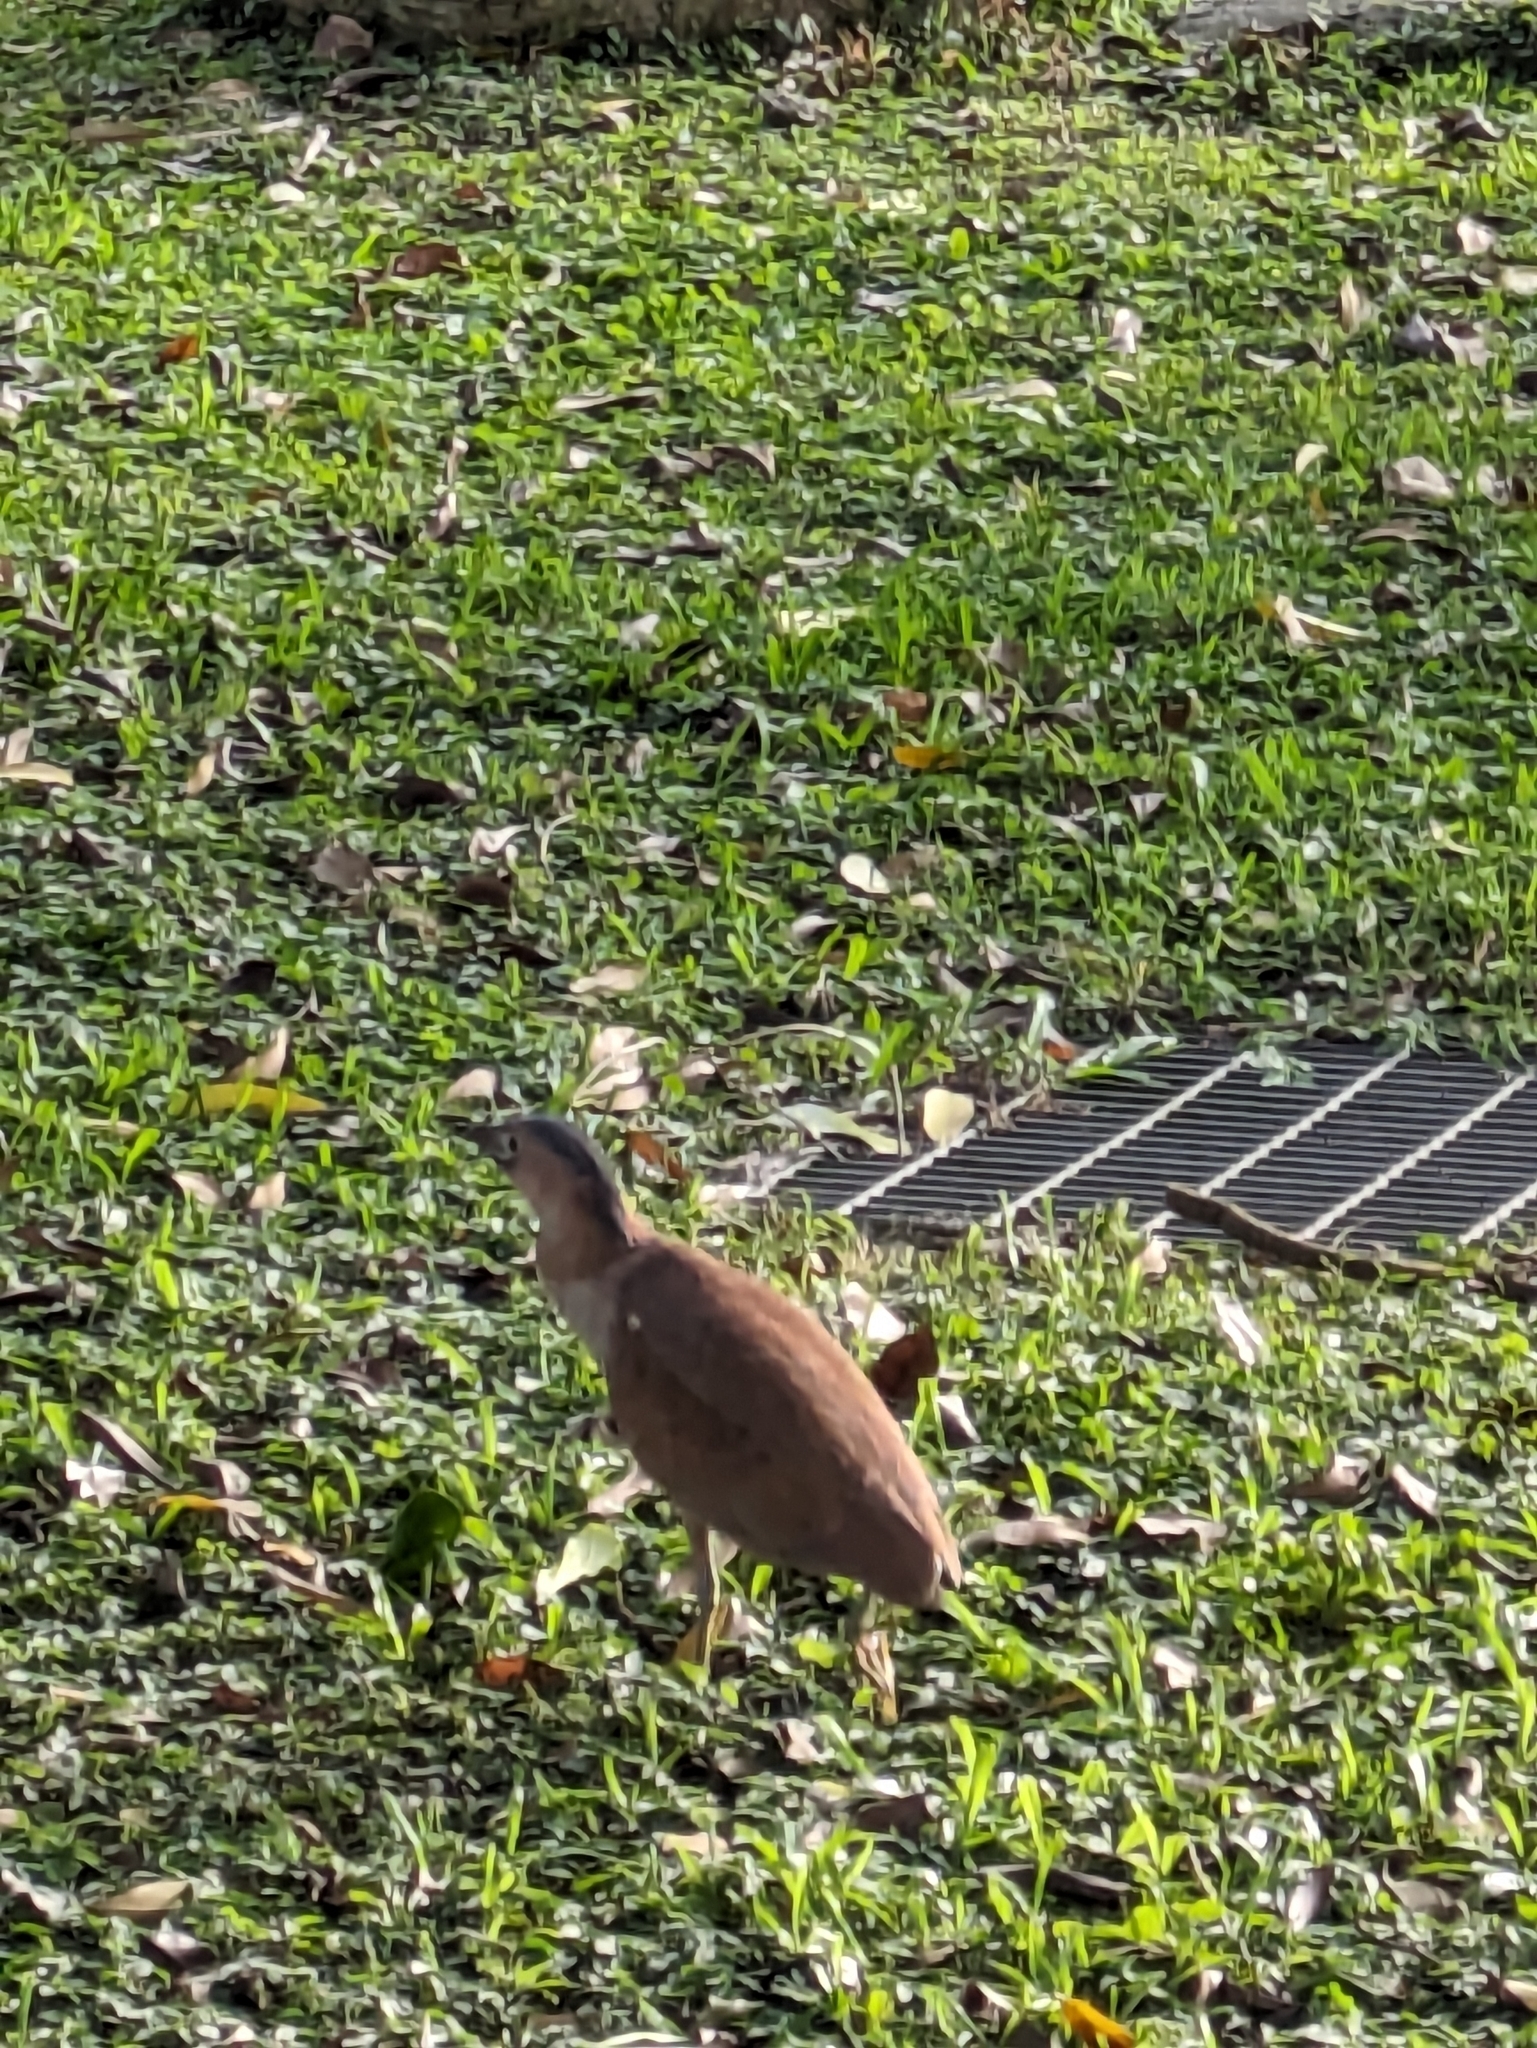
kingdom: Animalia
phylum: Chordata
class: Aves
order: Pelecaniformes
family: Ardeidae
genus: Gorsachius
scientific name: Gorsachius melanolophus
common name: Malayan night heron
